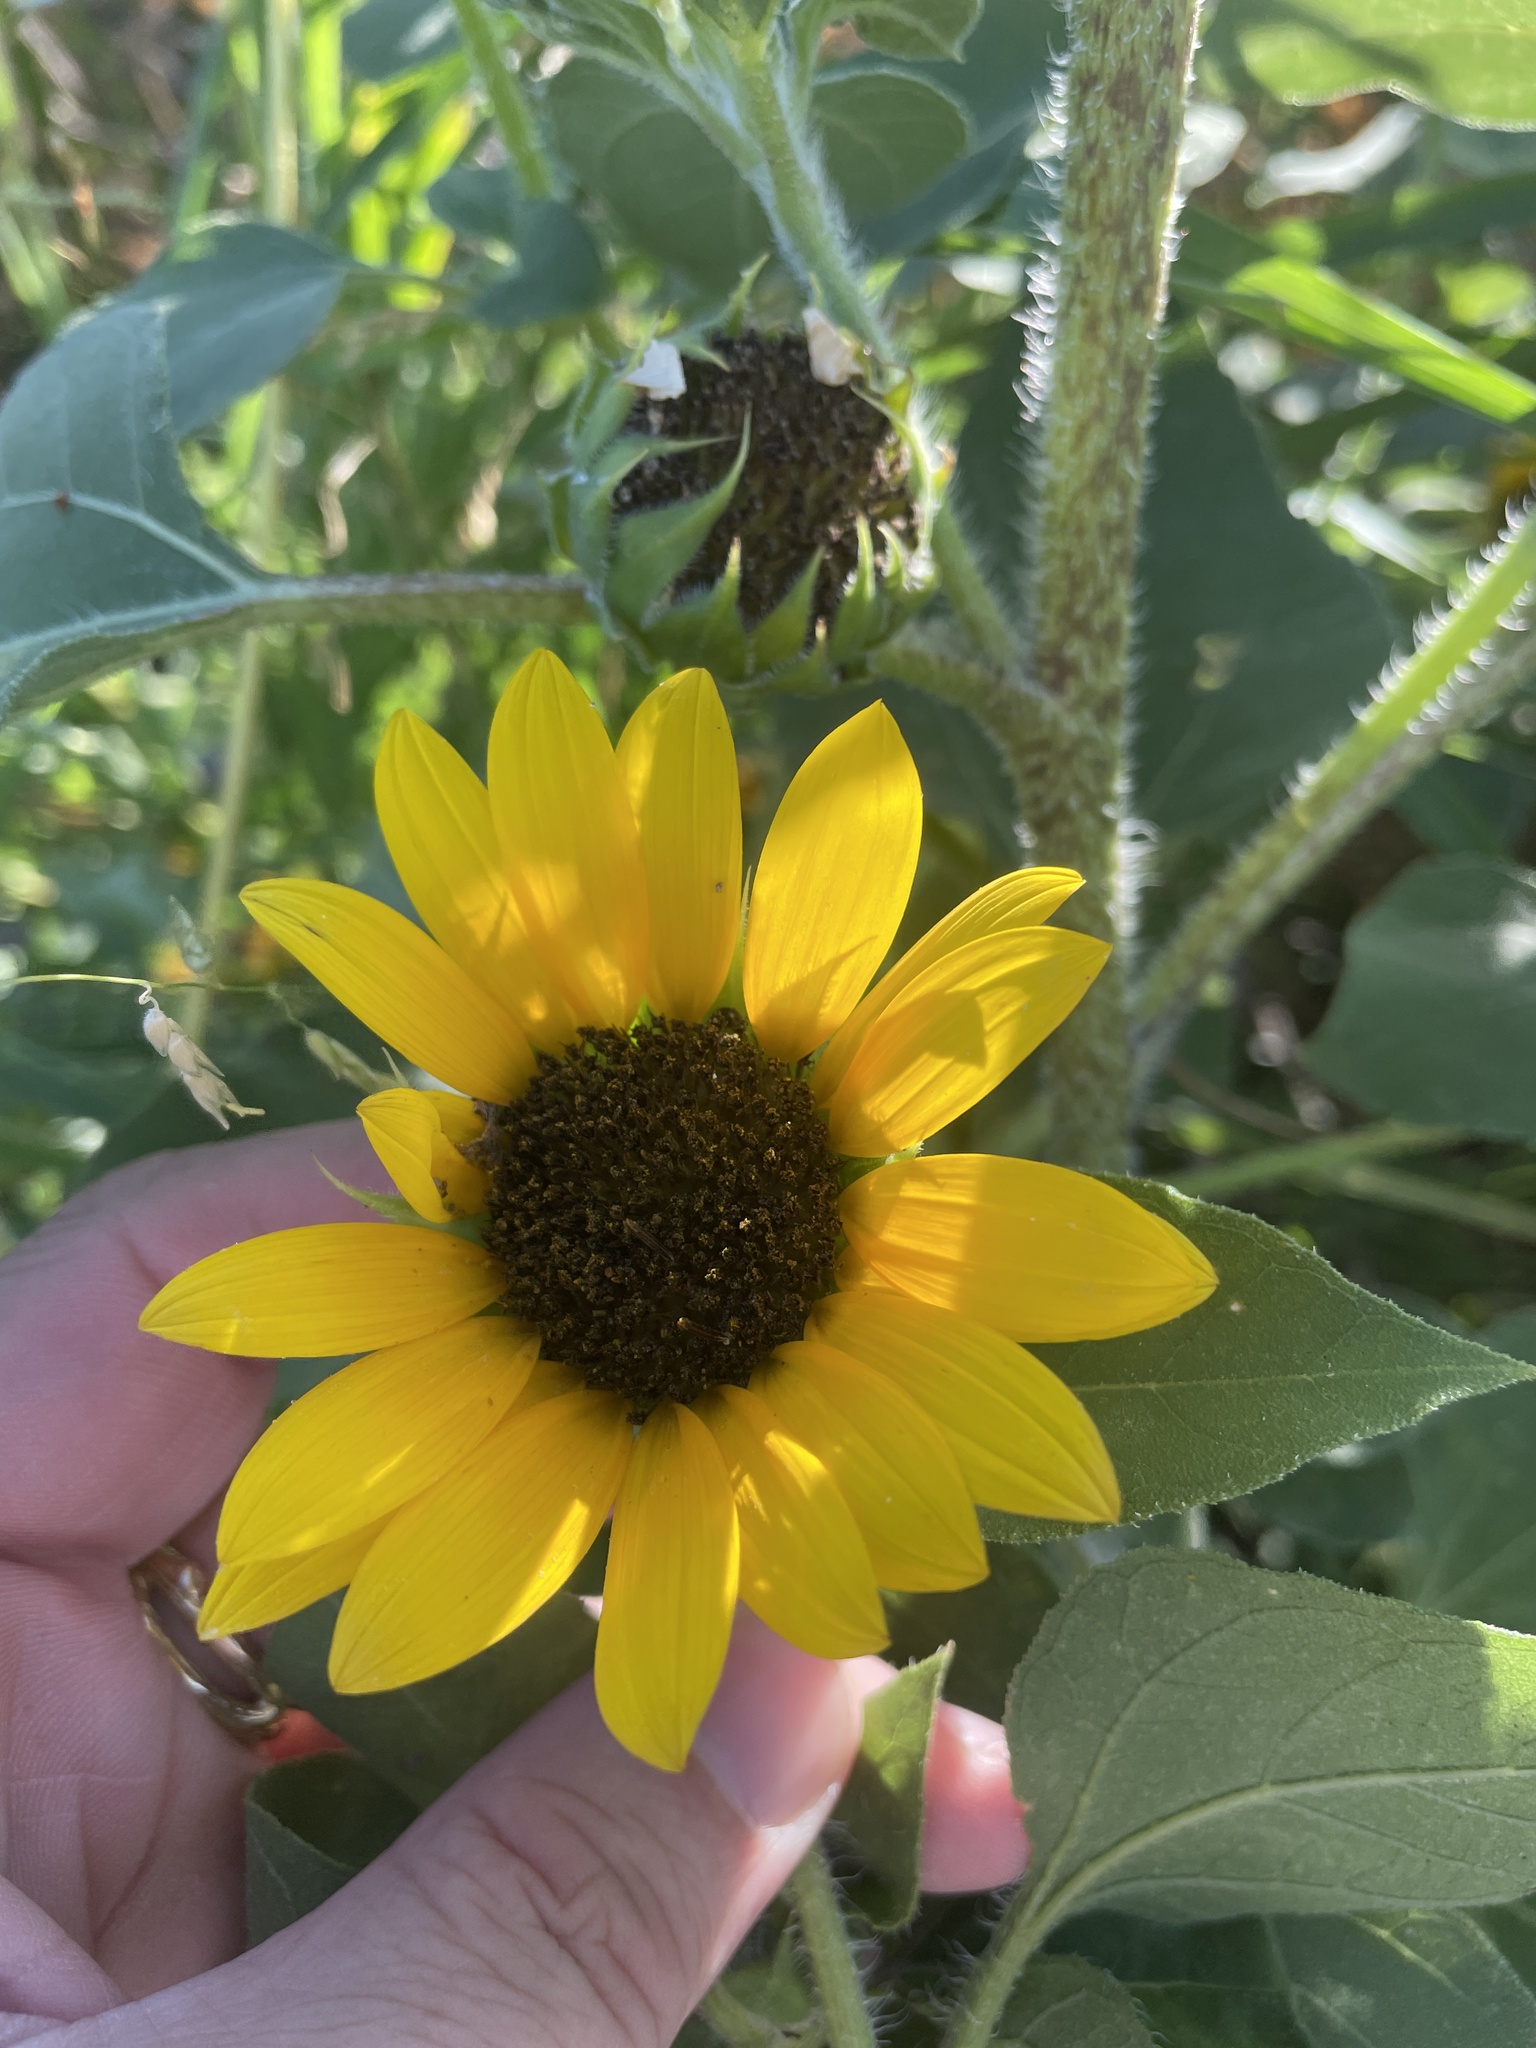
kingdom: Plantae
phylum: Tracheophyta
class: Magnoliopsida
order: Asterales
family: Asteraceae
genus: Helianthus
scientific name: Helianthus annuus
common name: Sunflower
